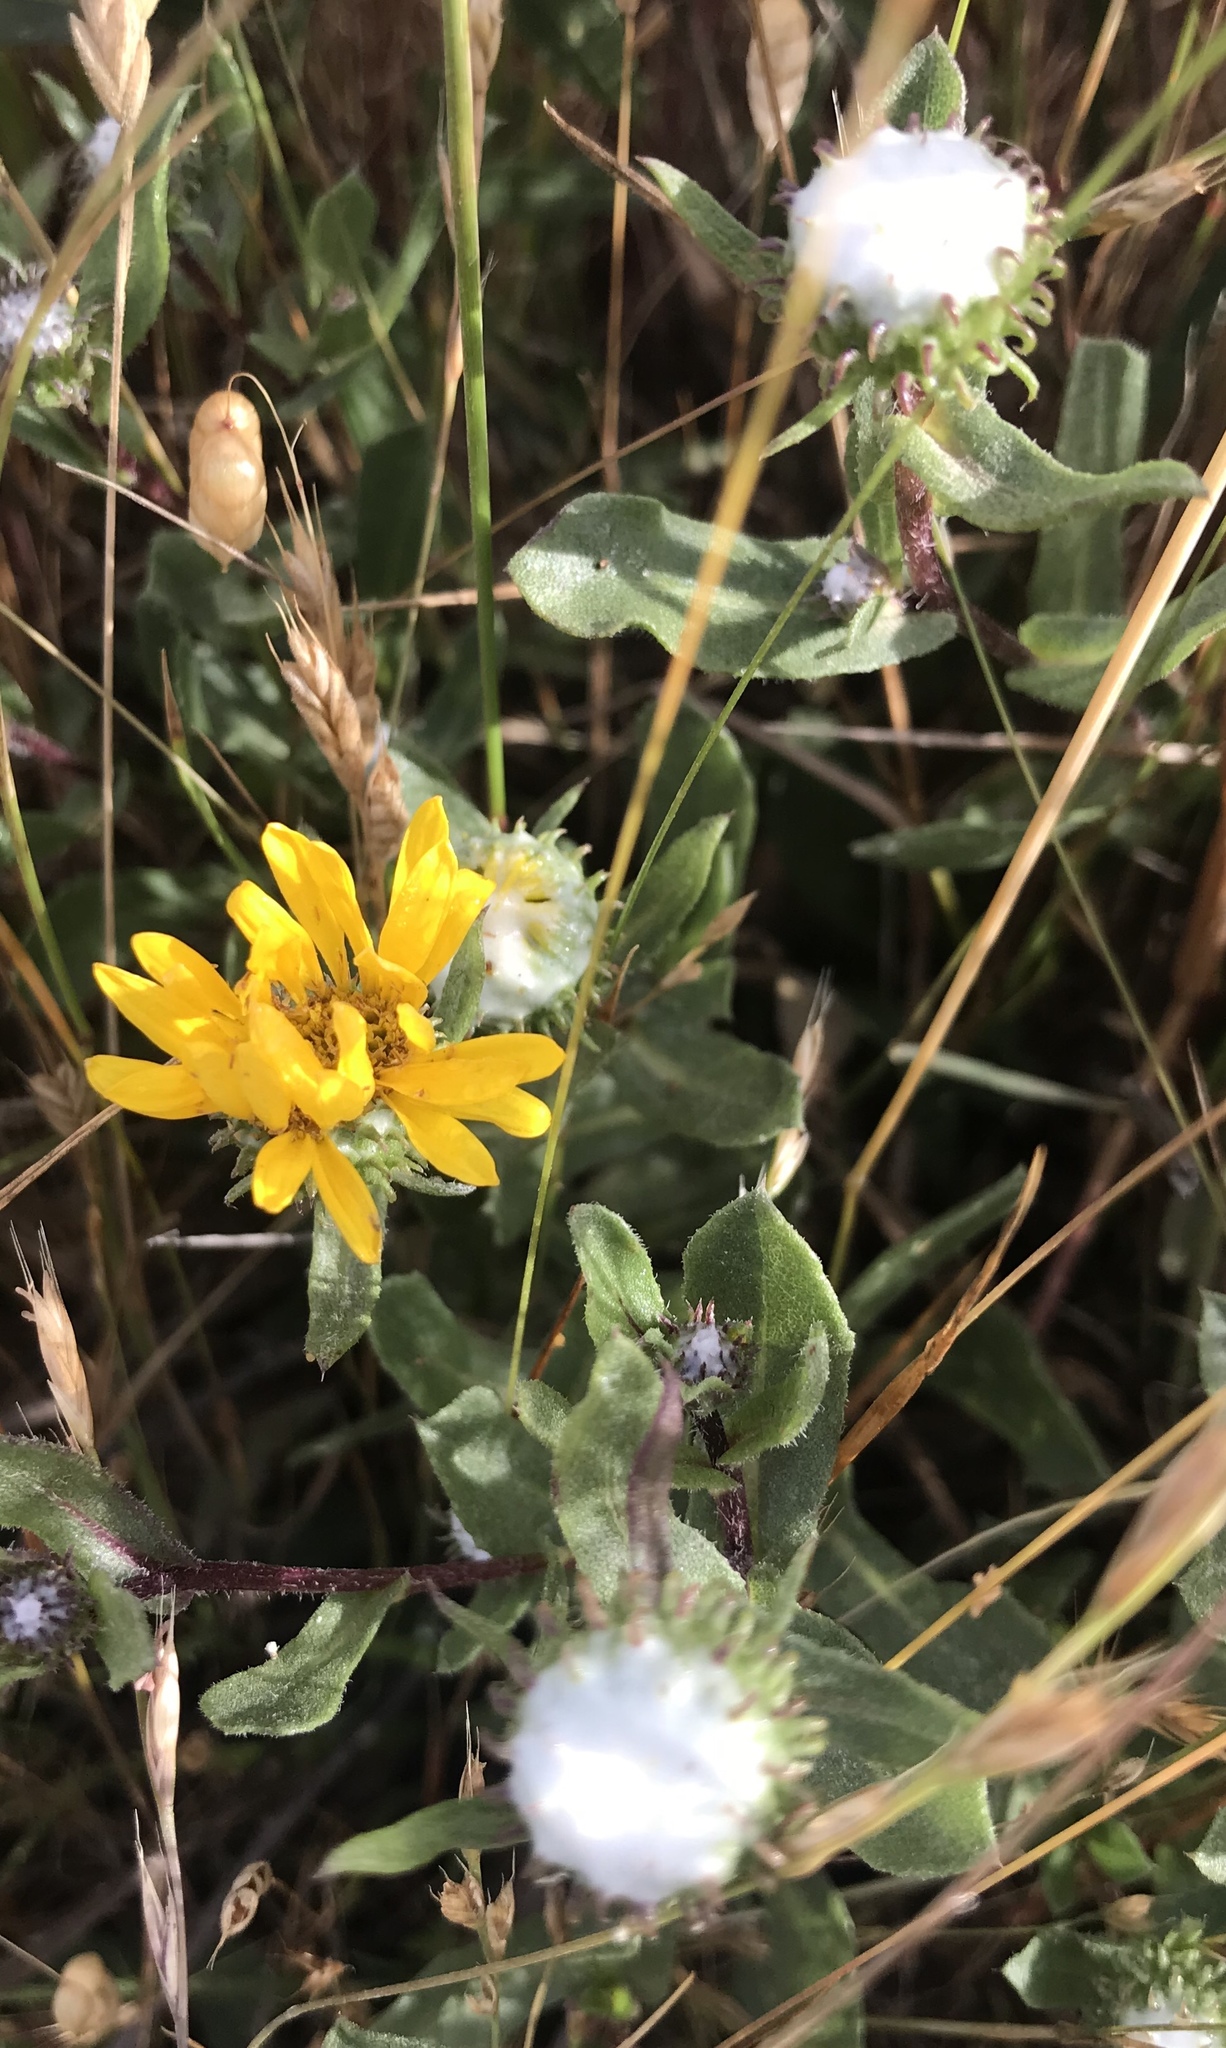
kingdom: Plantae
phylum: Tracheophyta
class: Magnoliopsida
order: Asterales
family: Asteraceae
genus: Grindelia
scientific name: Grindelia hirsutula
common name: Hairy gumweed
